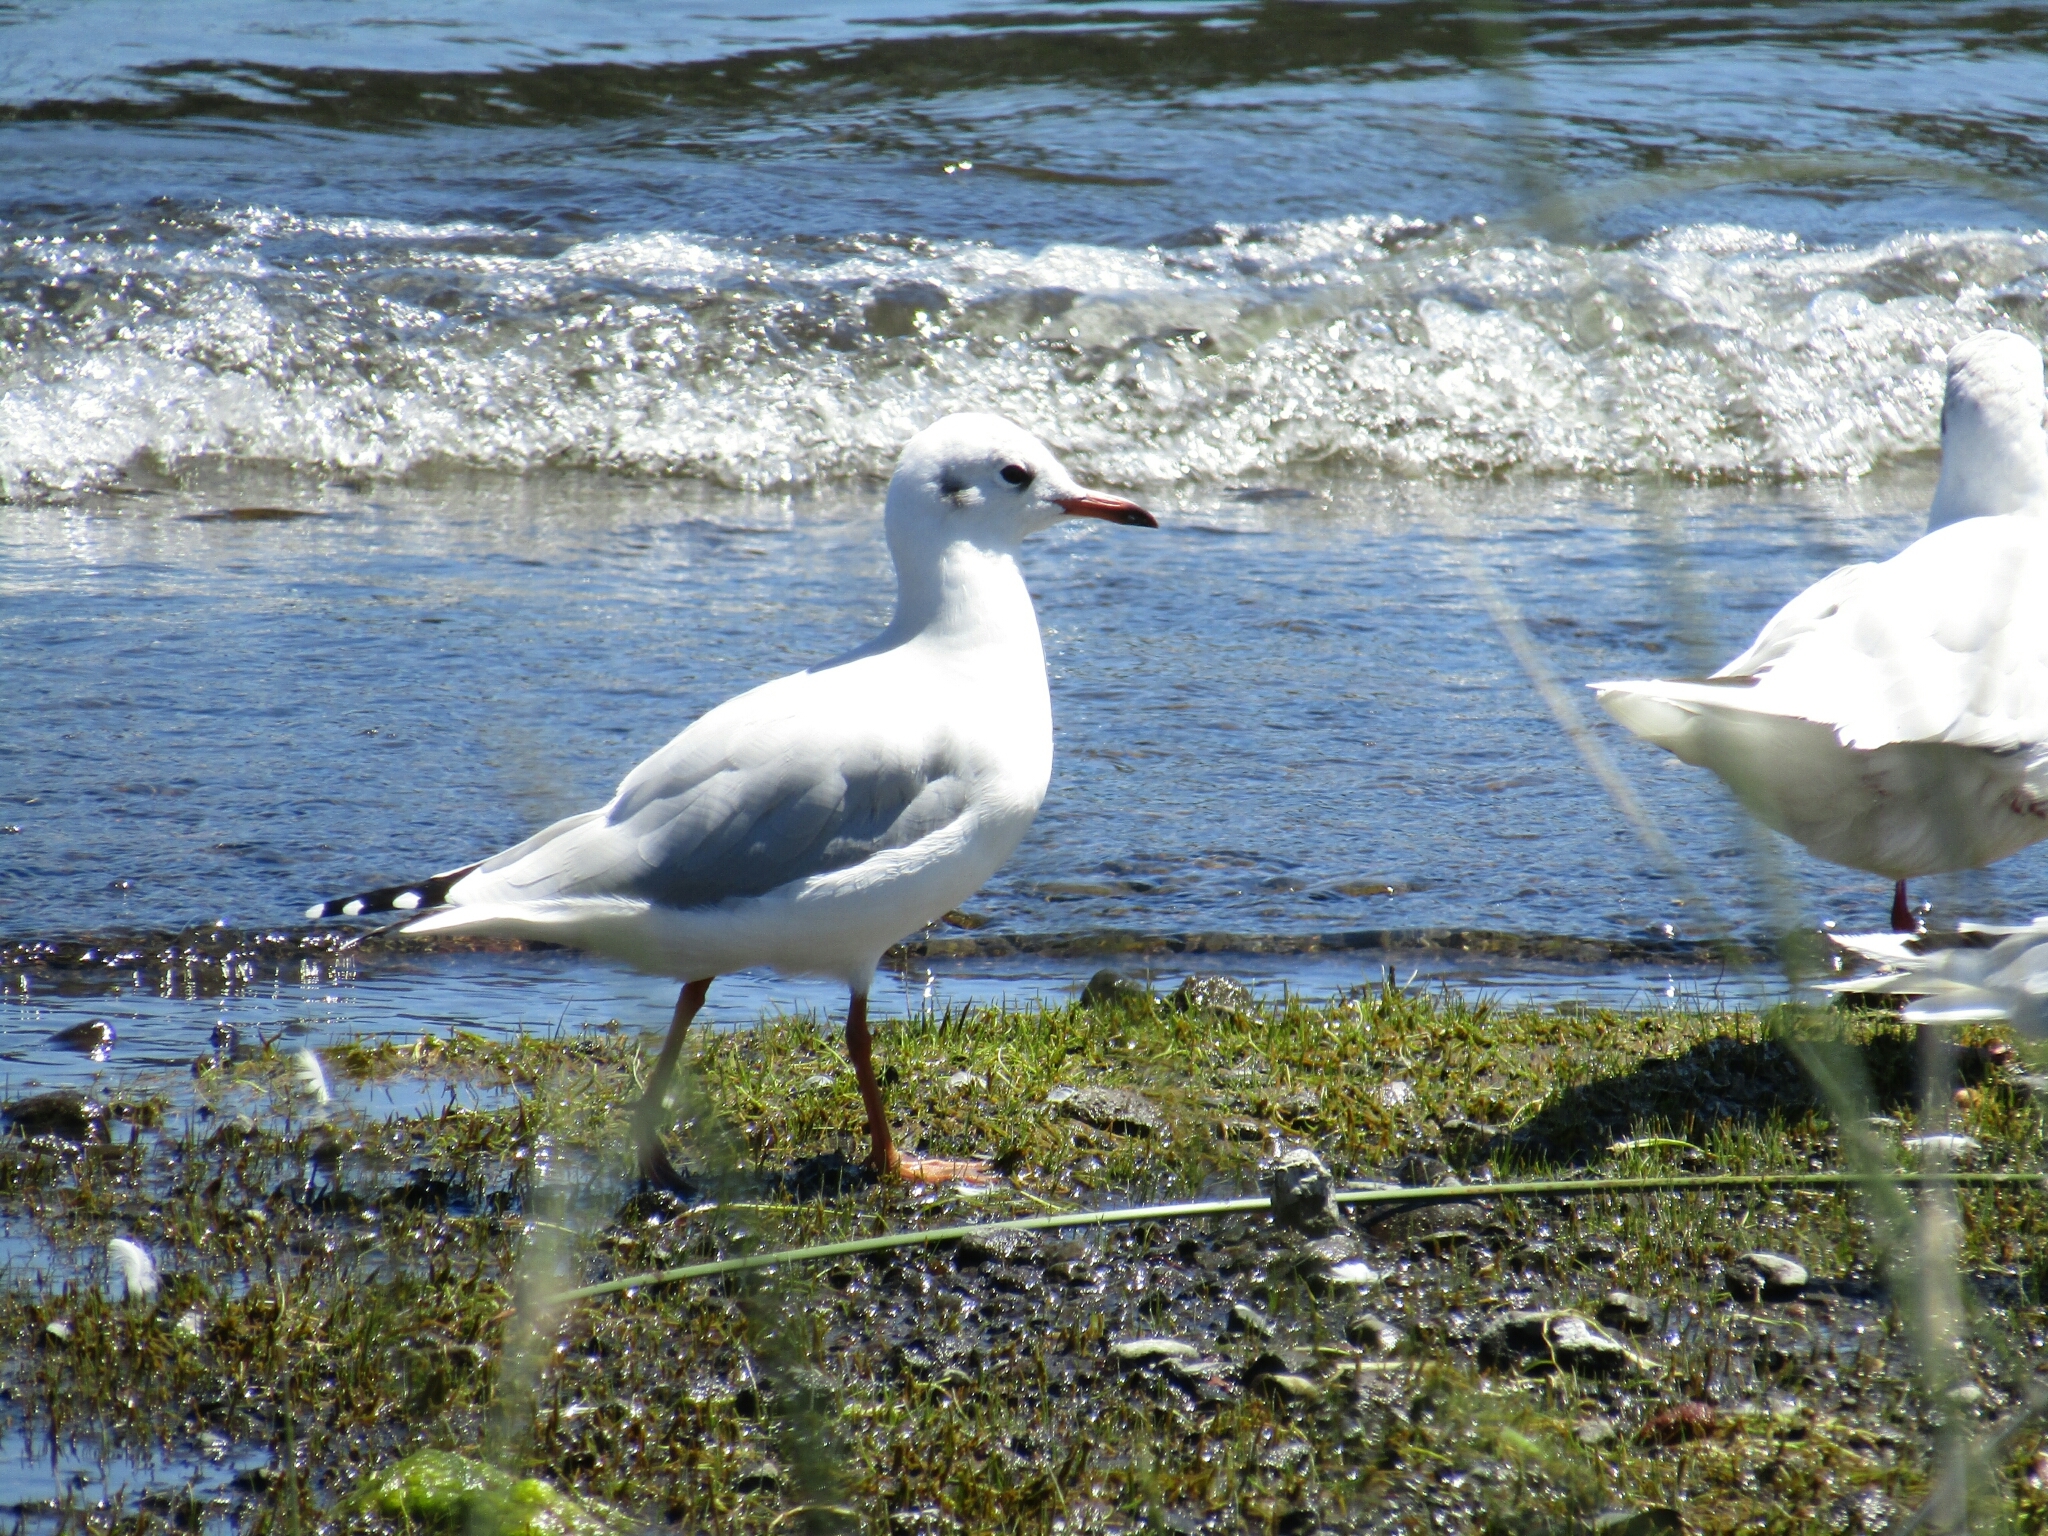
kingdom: Animalia
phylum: Chordata
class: Aves
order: Charadriiformes
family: Laridae
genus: Chroicocephalus
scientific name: Chroicocephalus maculipennis
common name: Brown-hooded gull
